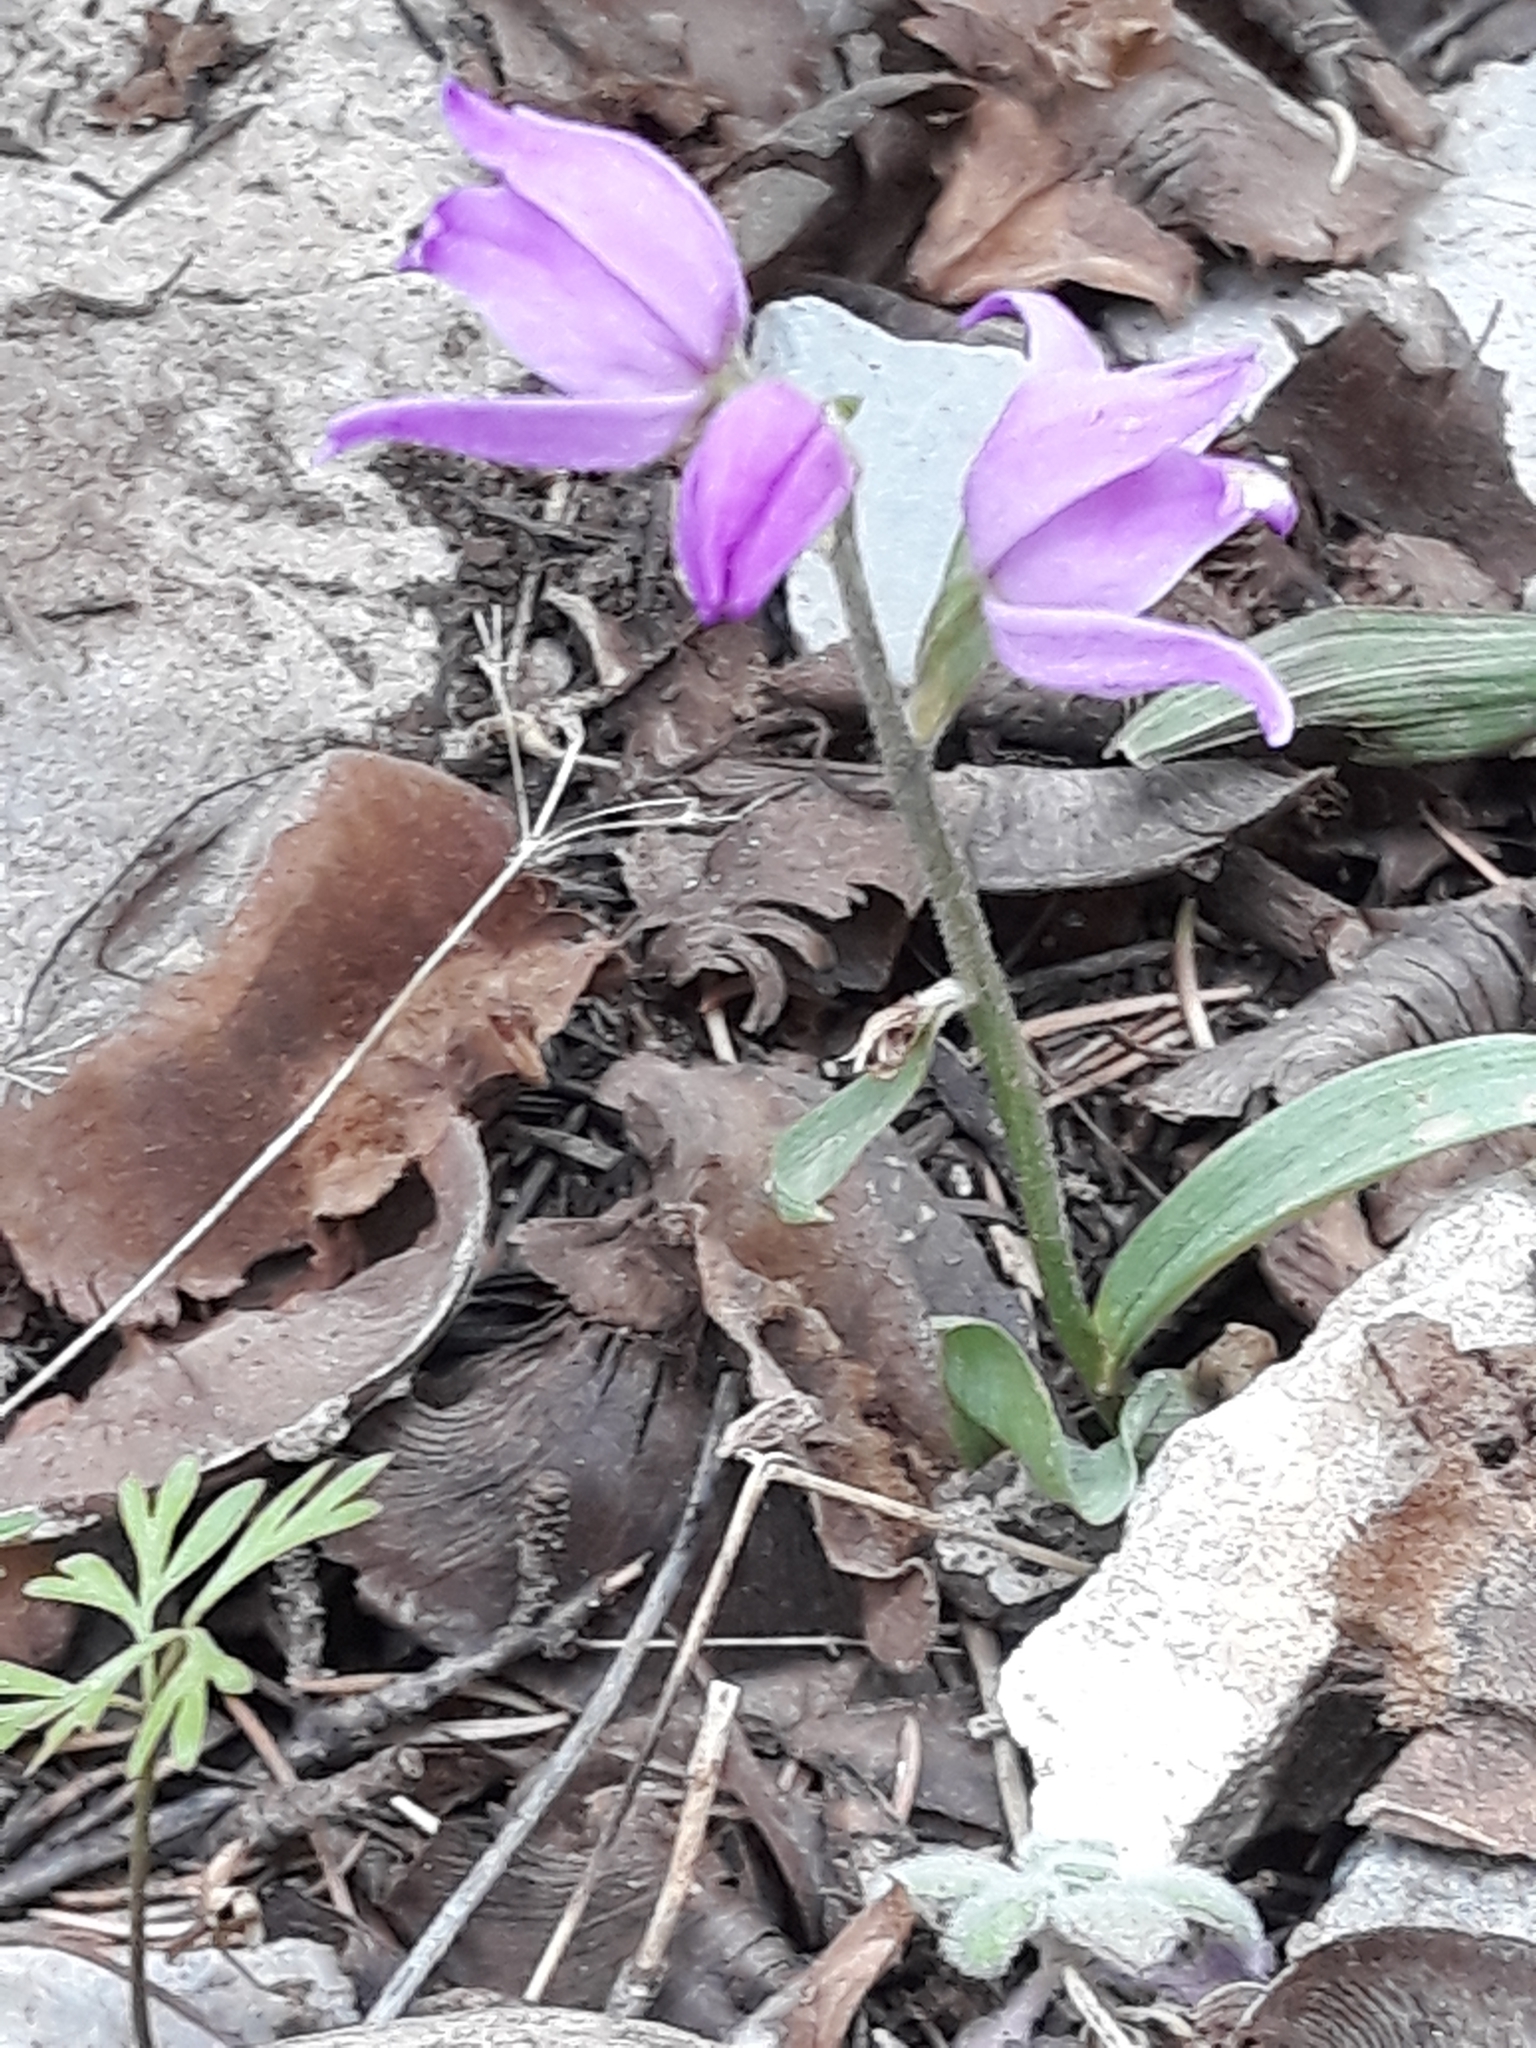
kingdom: Plantae
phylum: Tracheophyta
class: Liliopsida
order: Asparagales
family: Orchidaceae
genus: Cephalanthera
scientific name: Cephalanthera rubra
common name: Red helleborine
